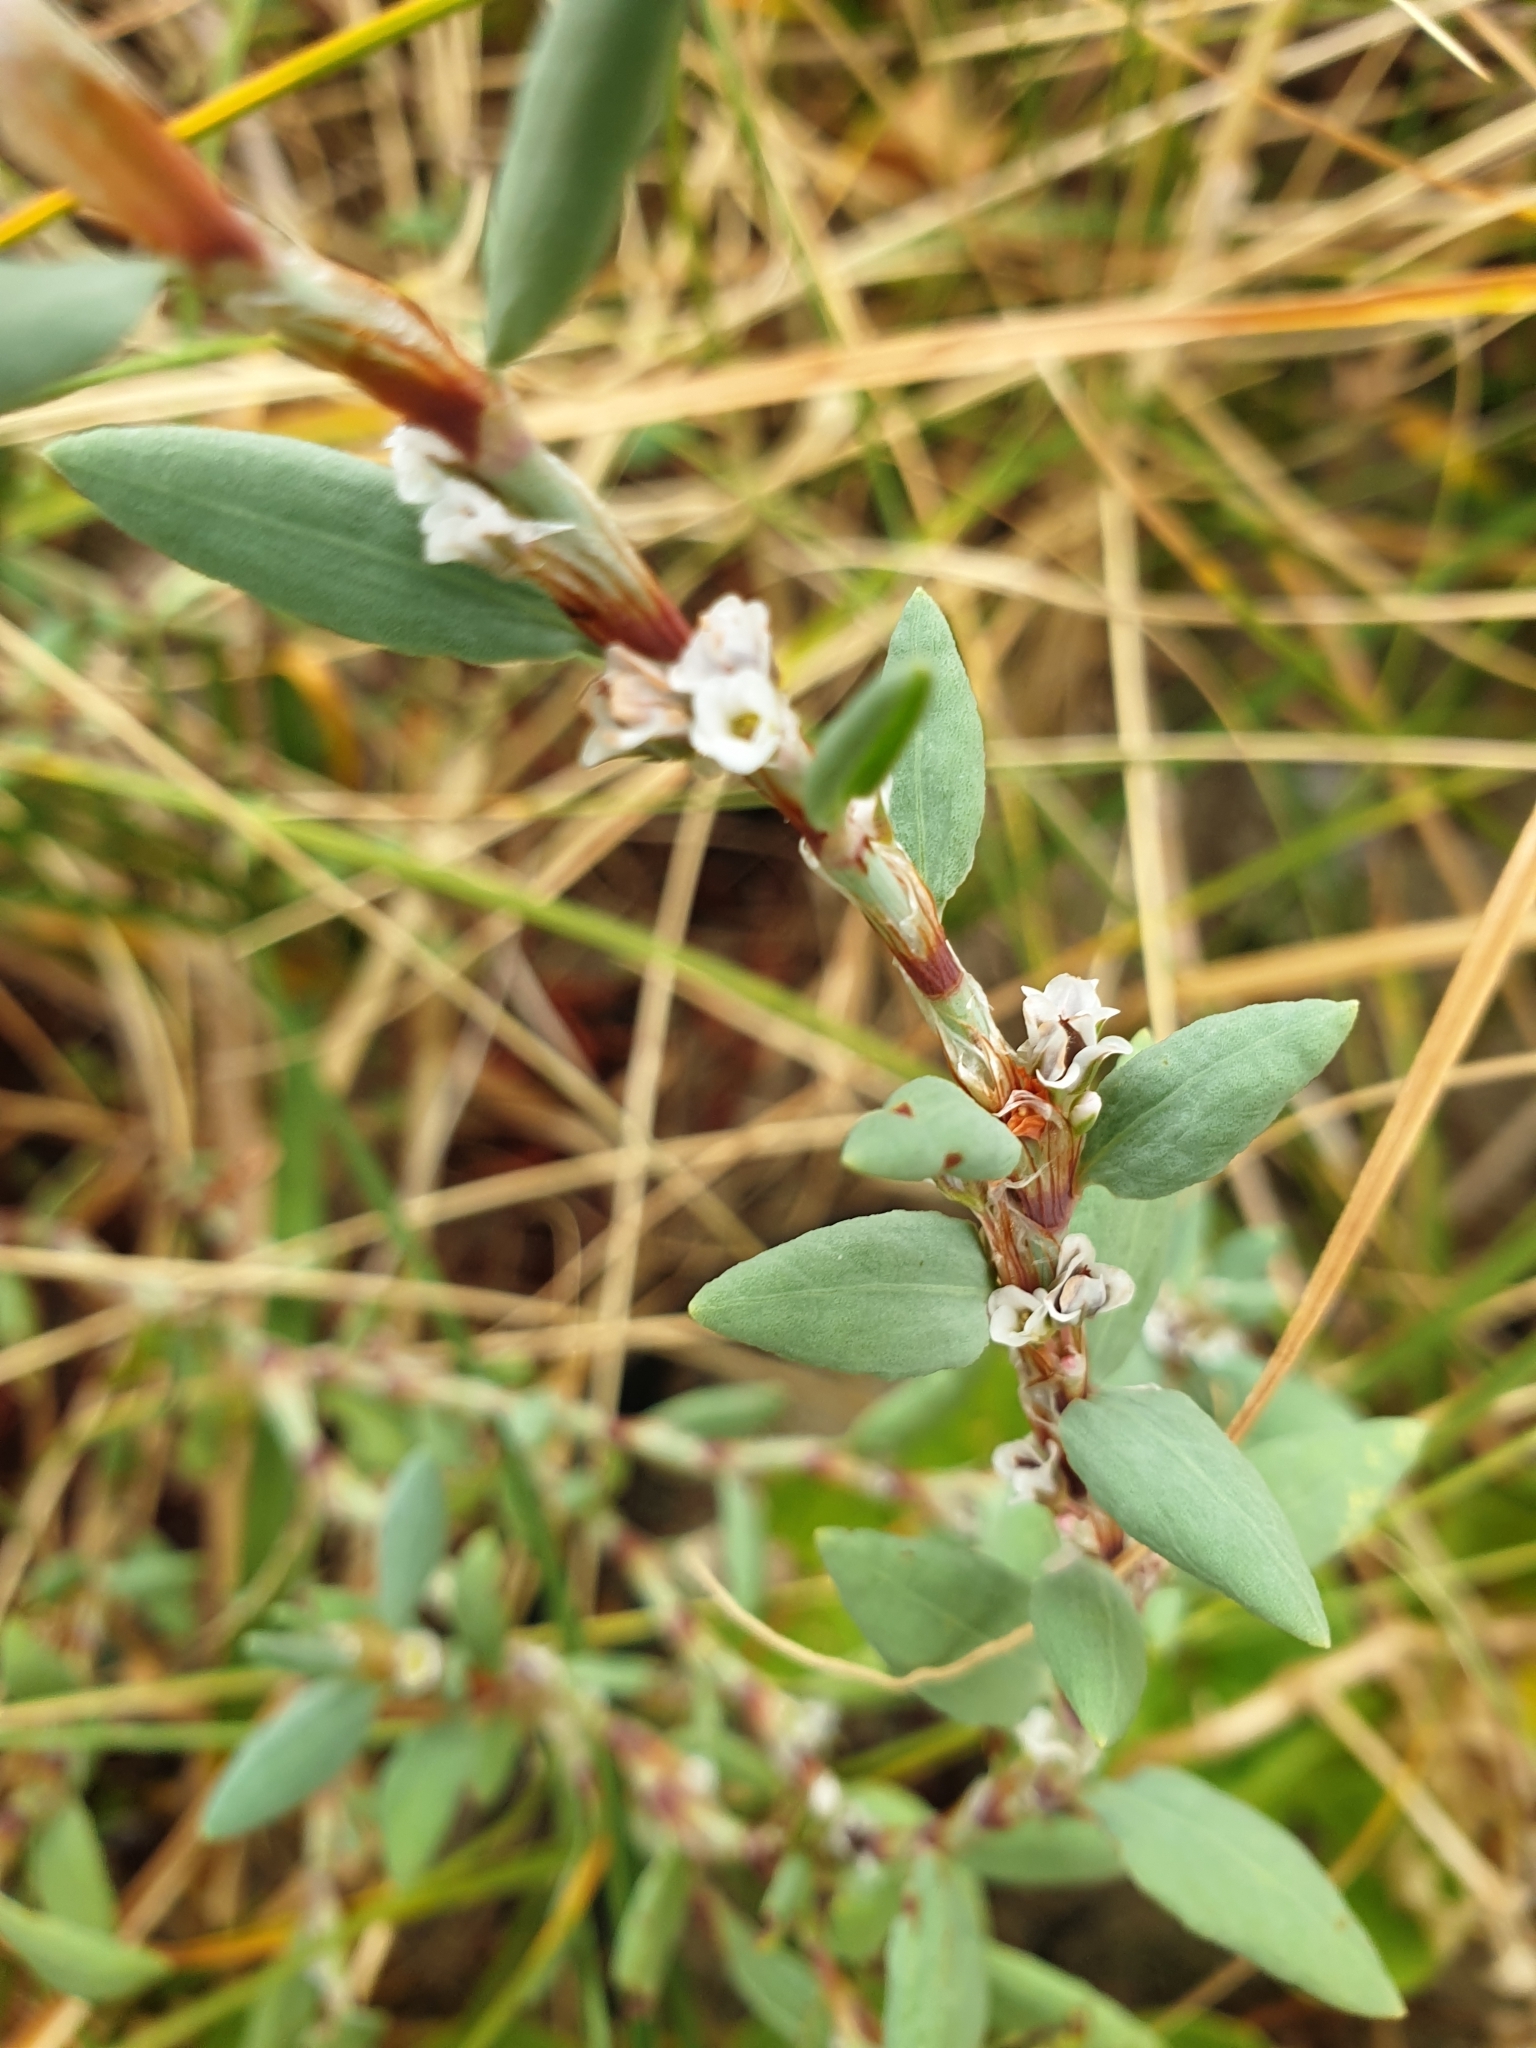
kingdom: Plantae
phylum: Tracheophyta
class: Magnoliopsida
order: Caryophyllales
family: Polygonaceae
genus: Polygonum
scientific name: Polygonum maritimum
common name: Sea knotgrass
